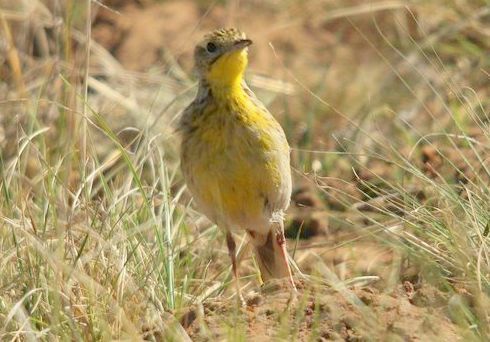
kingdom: Animalia
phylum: Chordata
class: Aves
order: Passeriformes
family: Motacillidae
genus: Anthus
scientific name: Anthus chloris
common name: Yellow-breasted pipit
